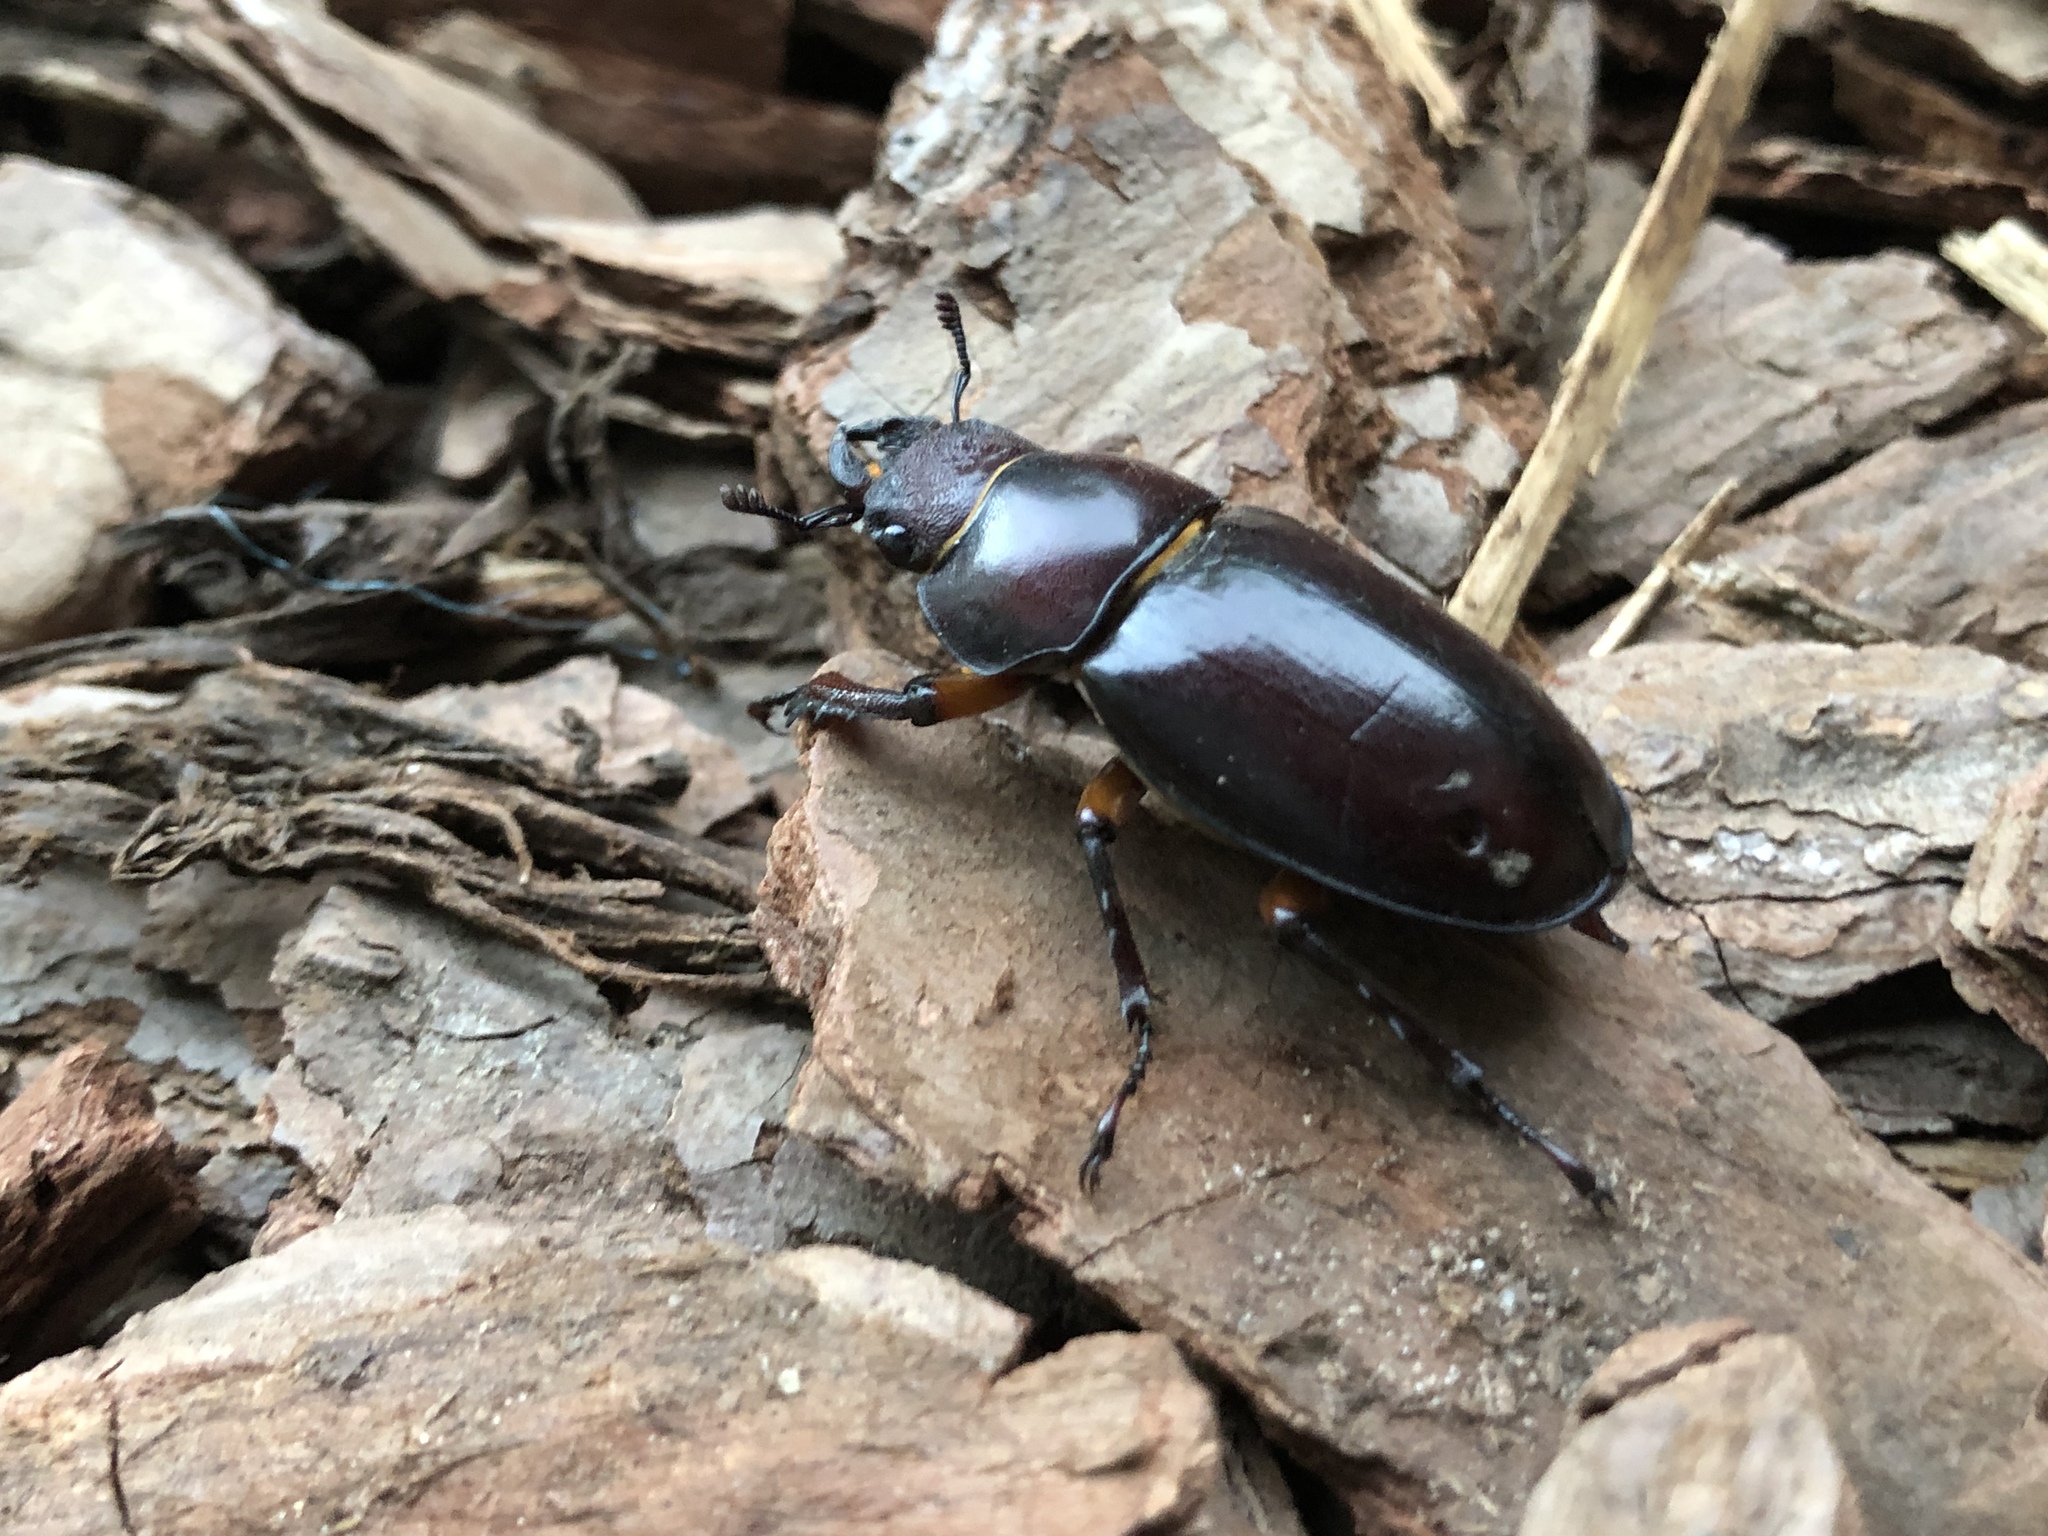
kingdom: Animalia
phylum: Arthropoda
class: Insecta
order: Coleoptera
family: Lucanidae
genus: Lucanus
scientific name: Lucanus capreolus
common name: Stag beetle
